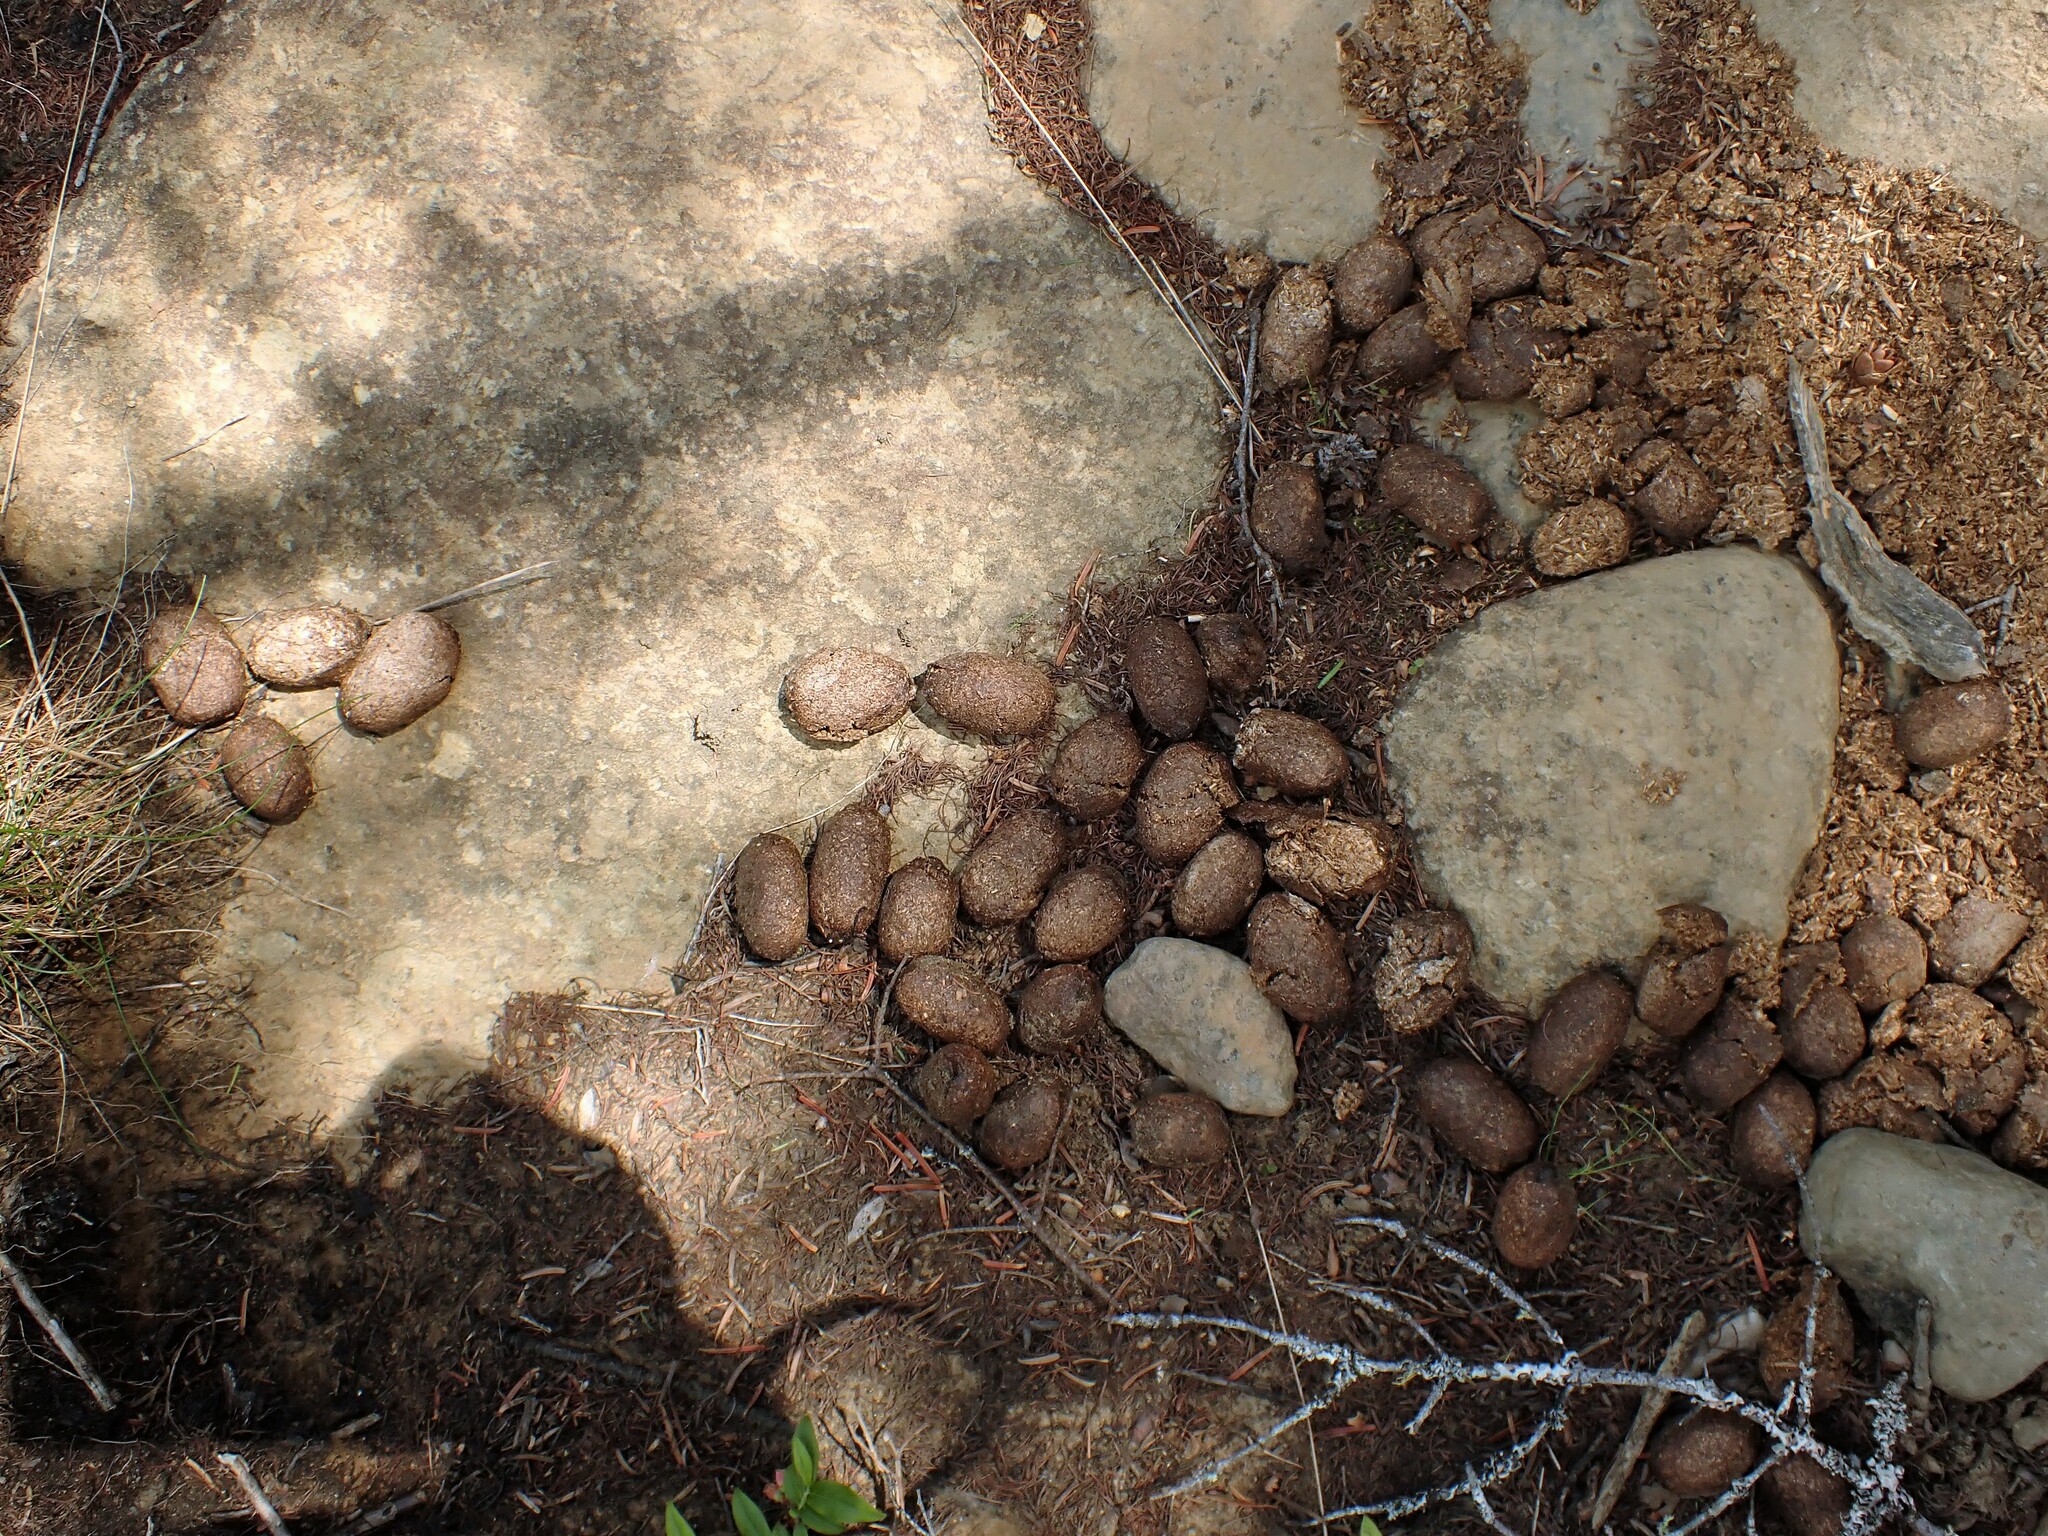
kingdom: Animalia
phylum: Chordata
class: Mammalia
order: Artiodactyla
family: Cervidae
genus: Alces
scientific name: Alces alces
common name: Moose
